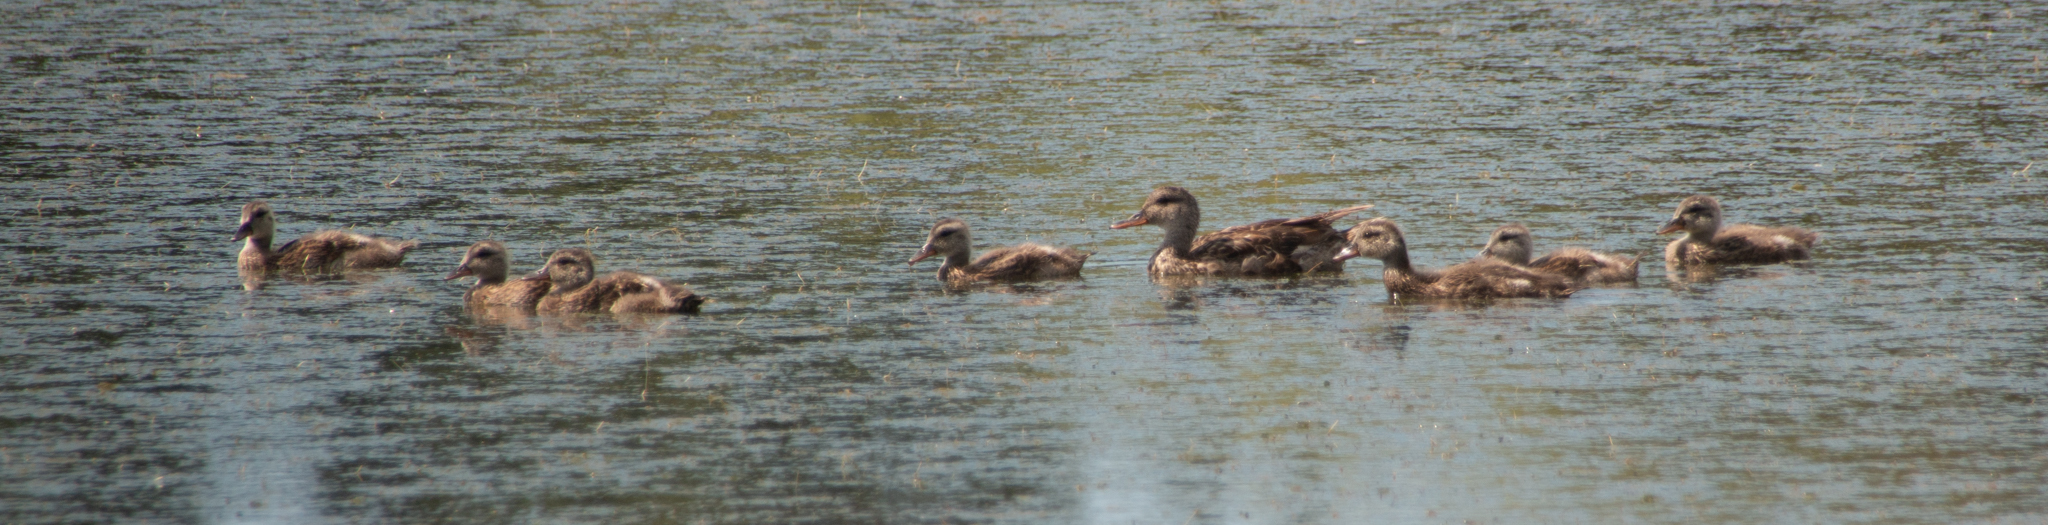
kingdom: Animalia
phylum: Chordata
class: Aves
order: Anseriformes
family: Anatidae
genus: Mareca
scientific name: Mareca strepera
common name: Gadwall
